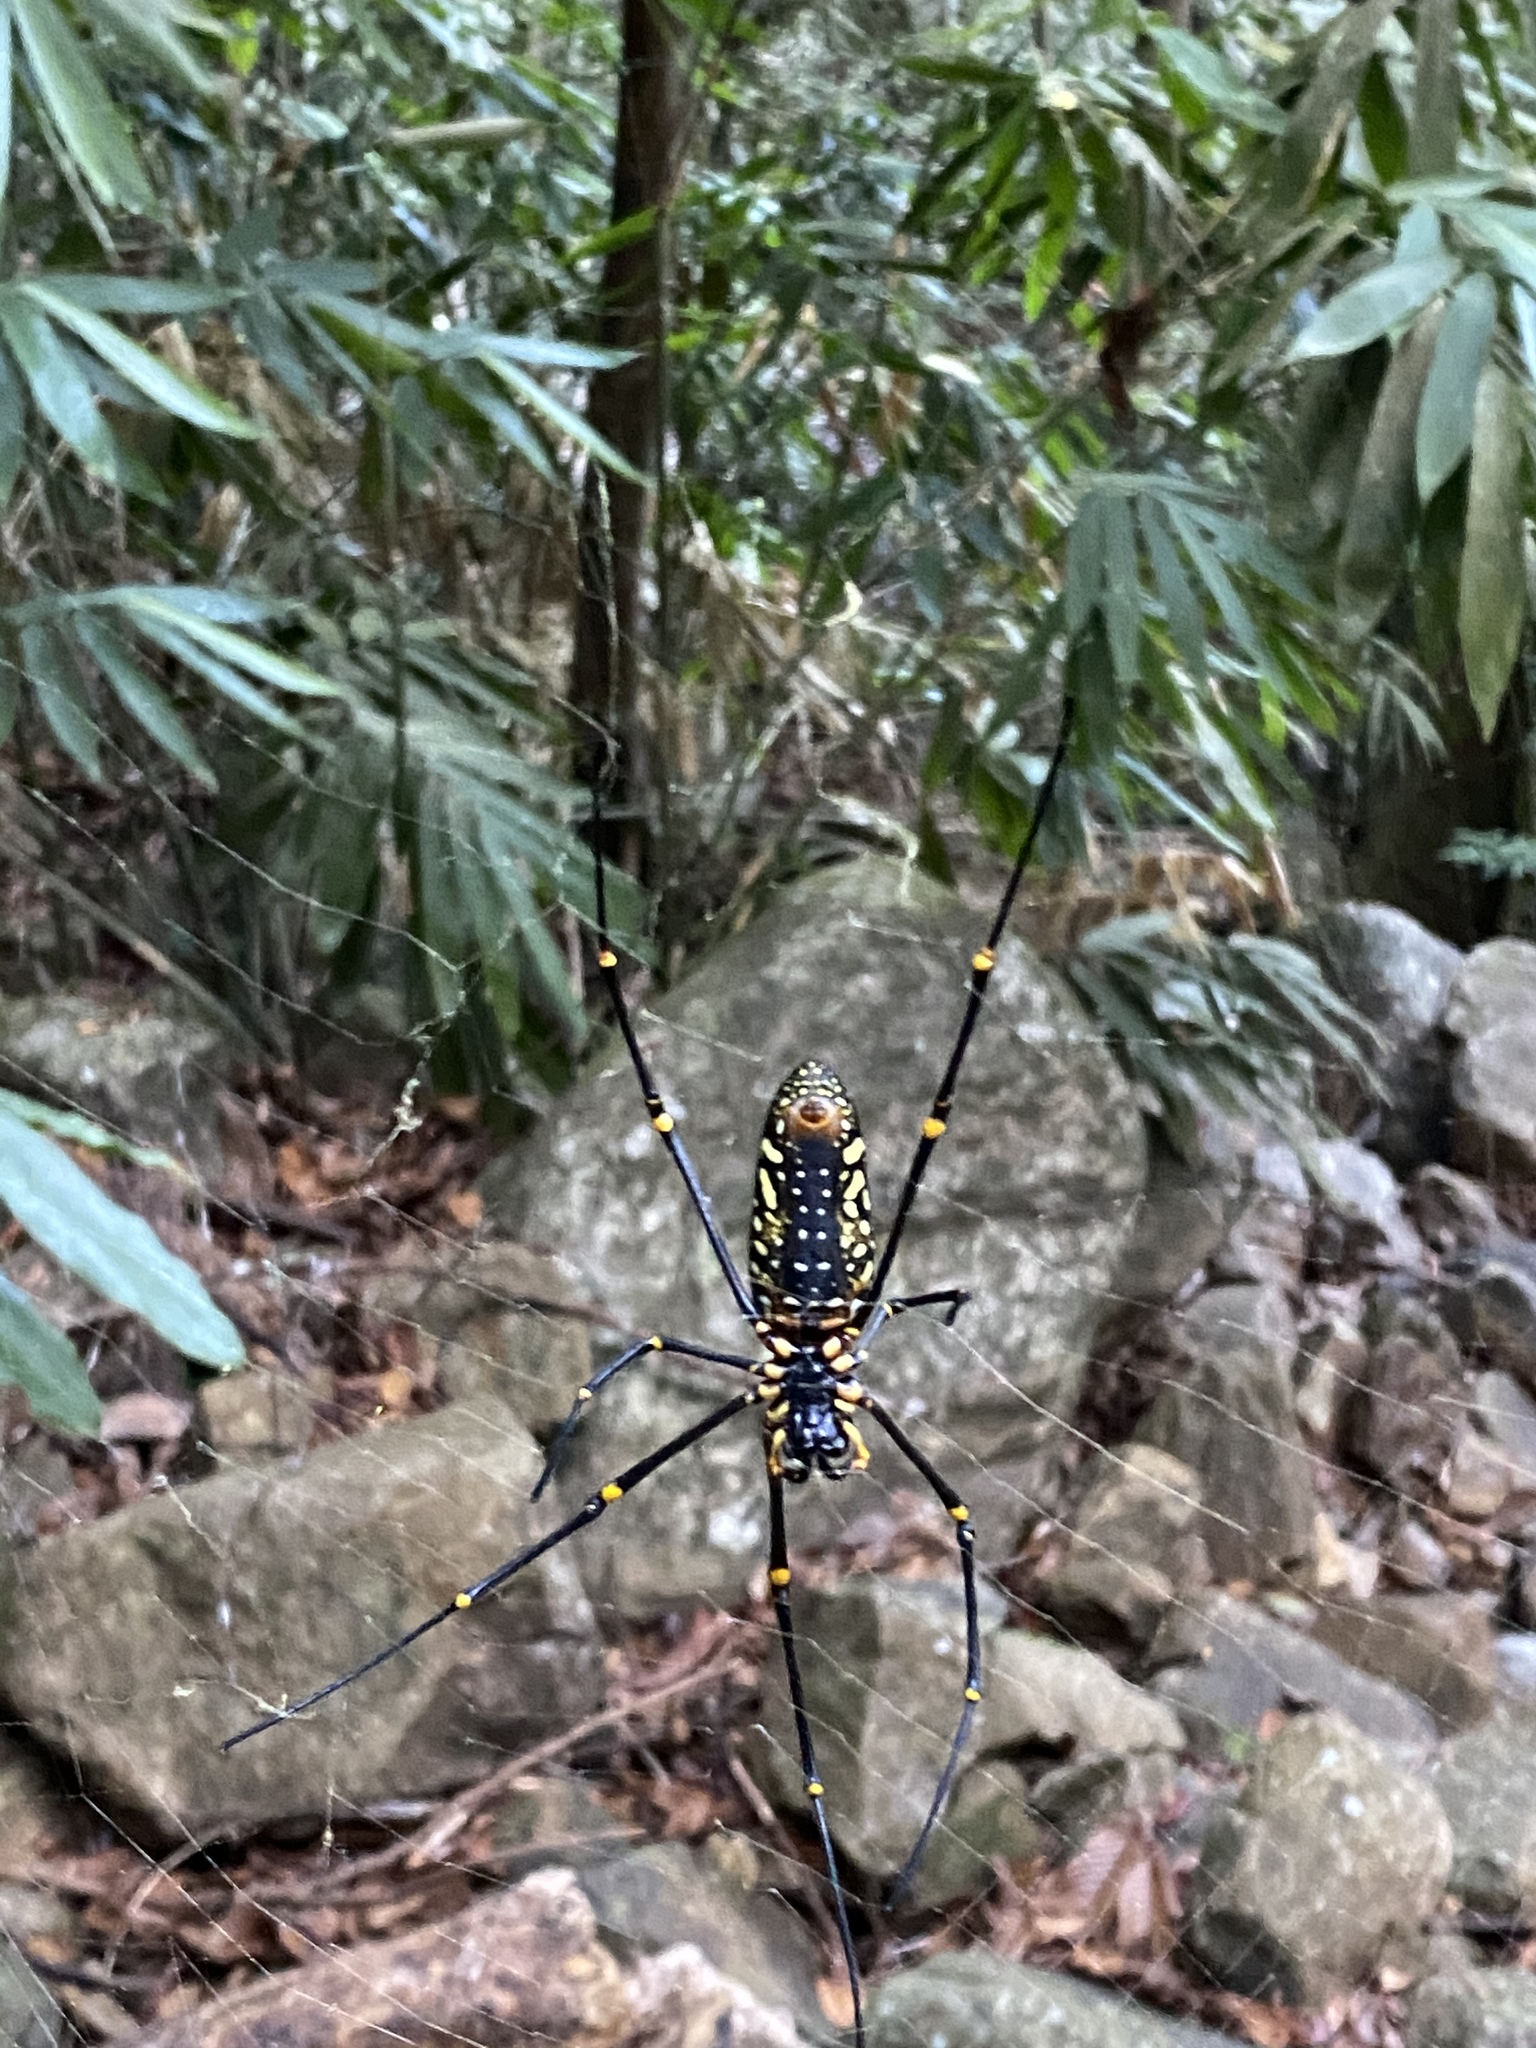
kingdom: Animalia
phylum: Arthropoda
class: Arachnida
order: Araneae
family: Araneidae
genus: Nephila
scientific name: Nephila pilipes
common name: Giant golden orb weaver
